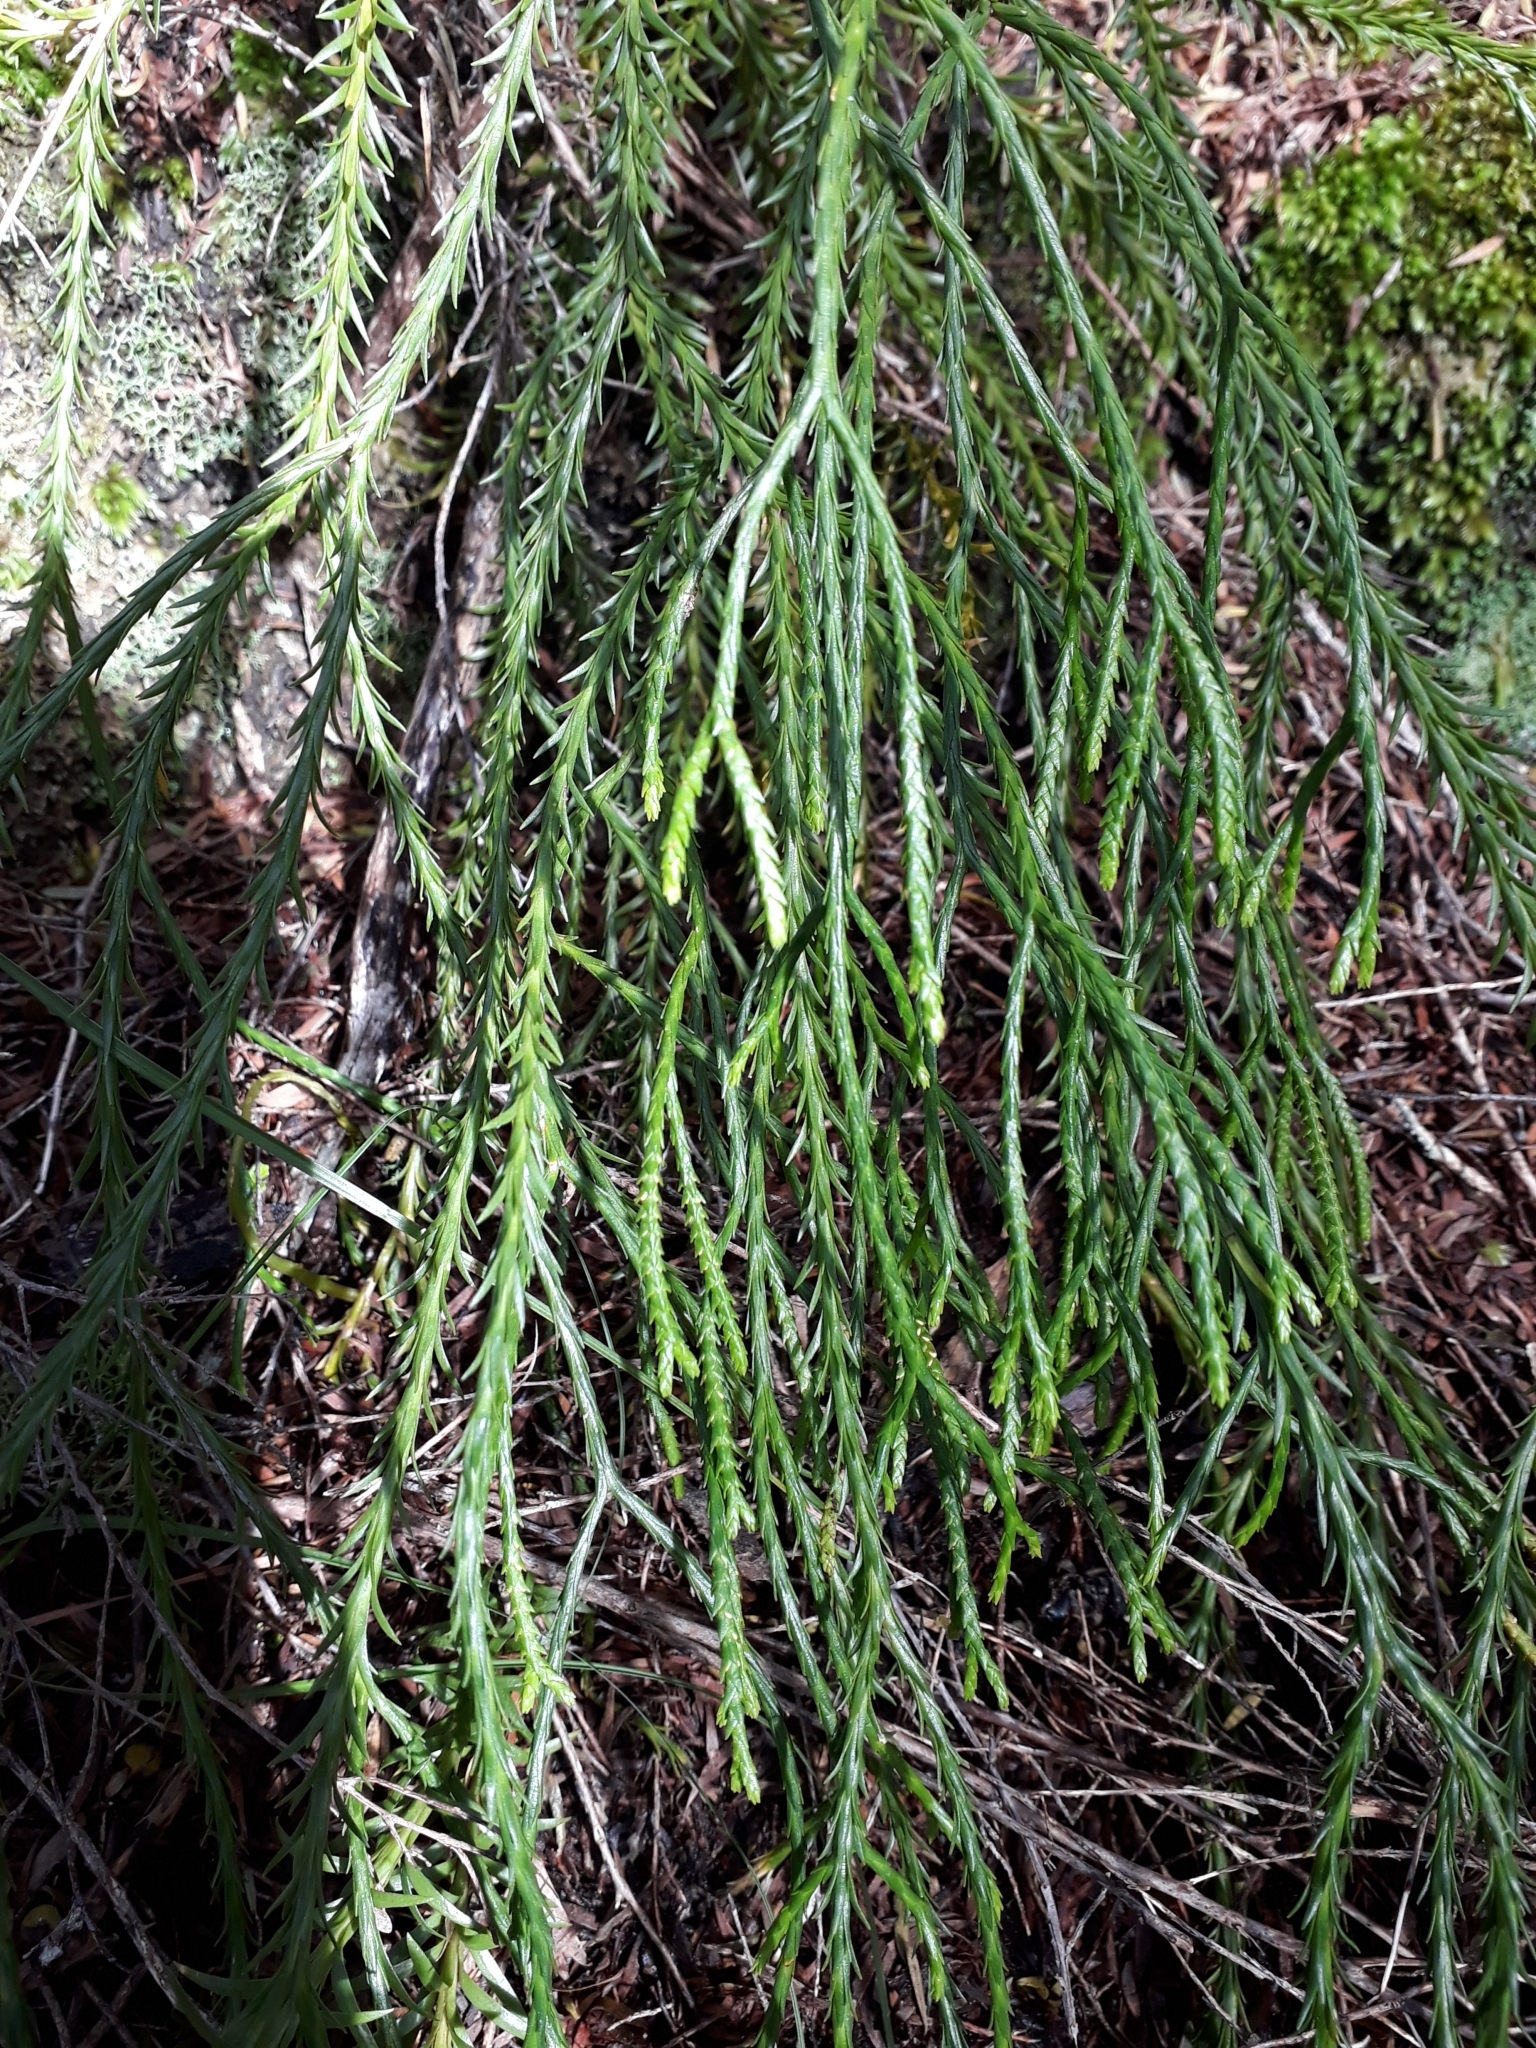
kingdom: Plantae
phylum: Tracheophyta
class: Lycopodiopsida
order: Lycopodiales
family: Lycopodiaceae
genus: Phlegmariurus
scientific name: Phlegmariurus billardierei
